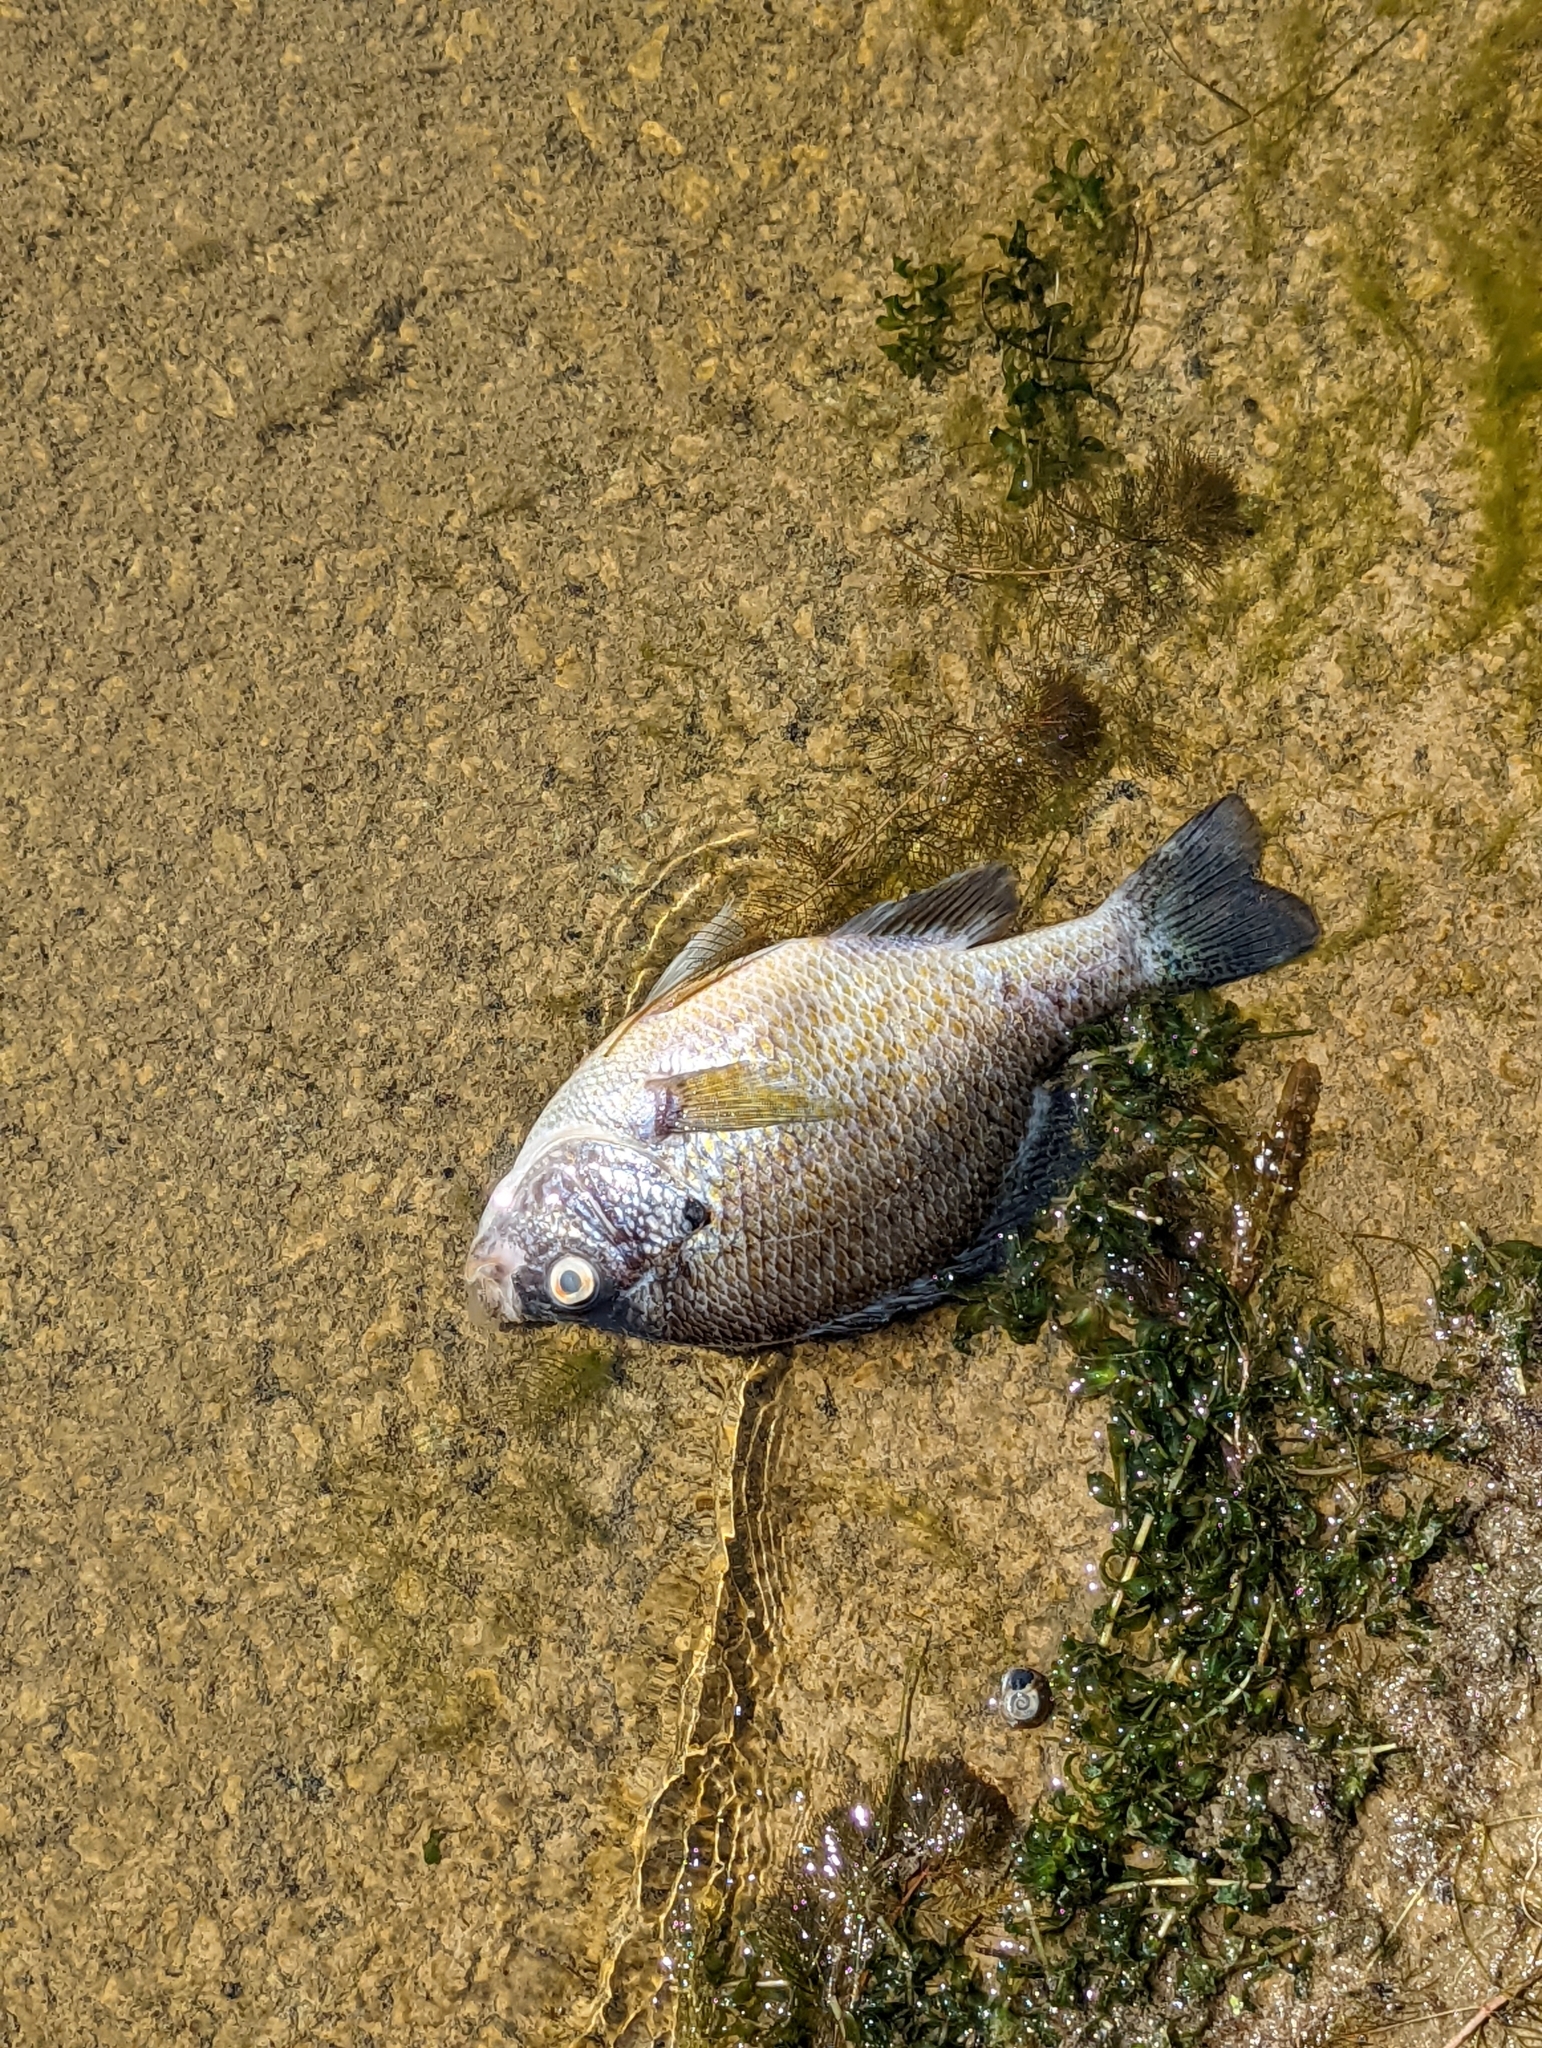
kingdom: Animalia
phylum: Chordata
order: Perciformes
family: Centrarchidae
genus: Lepomis
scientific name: Lepomis gibbosus
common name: Pumpkinseed
